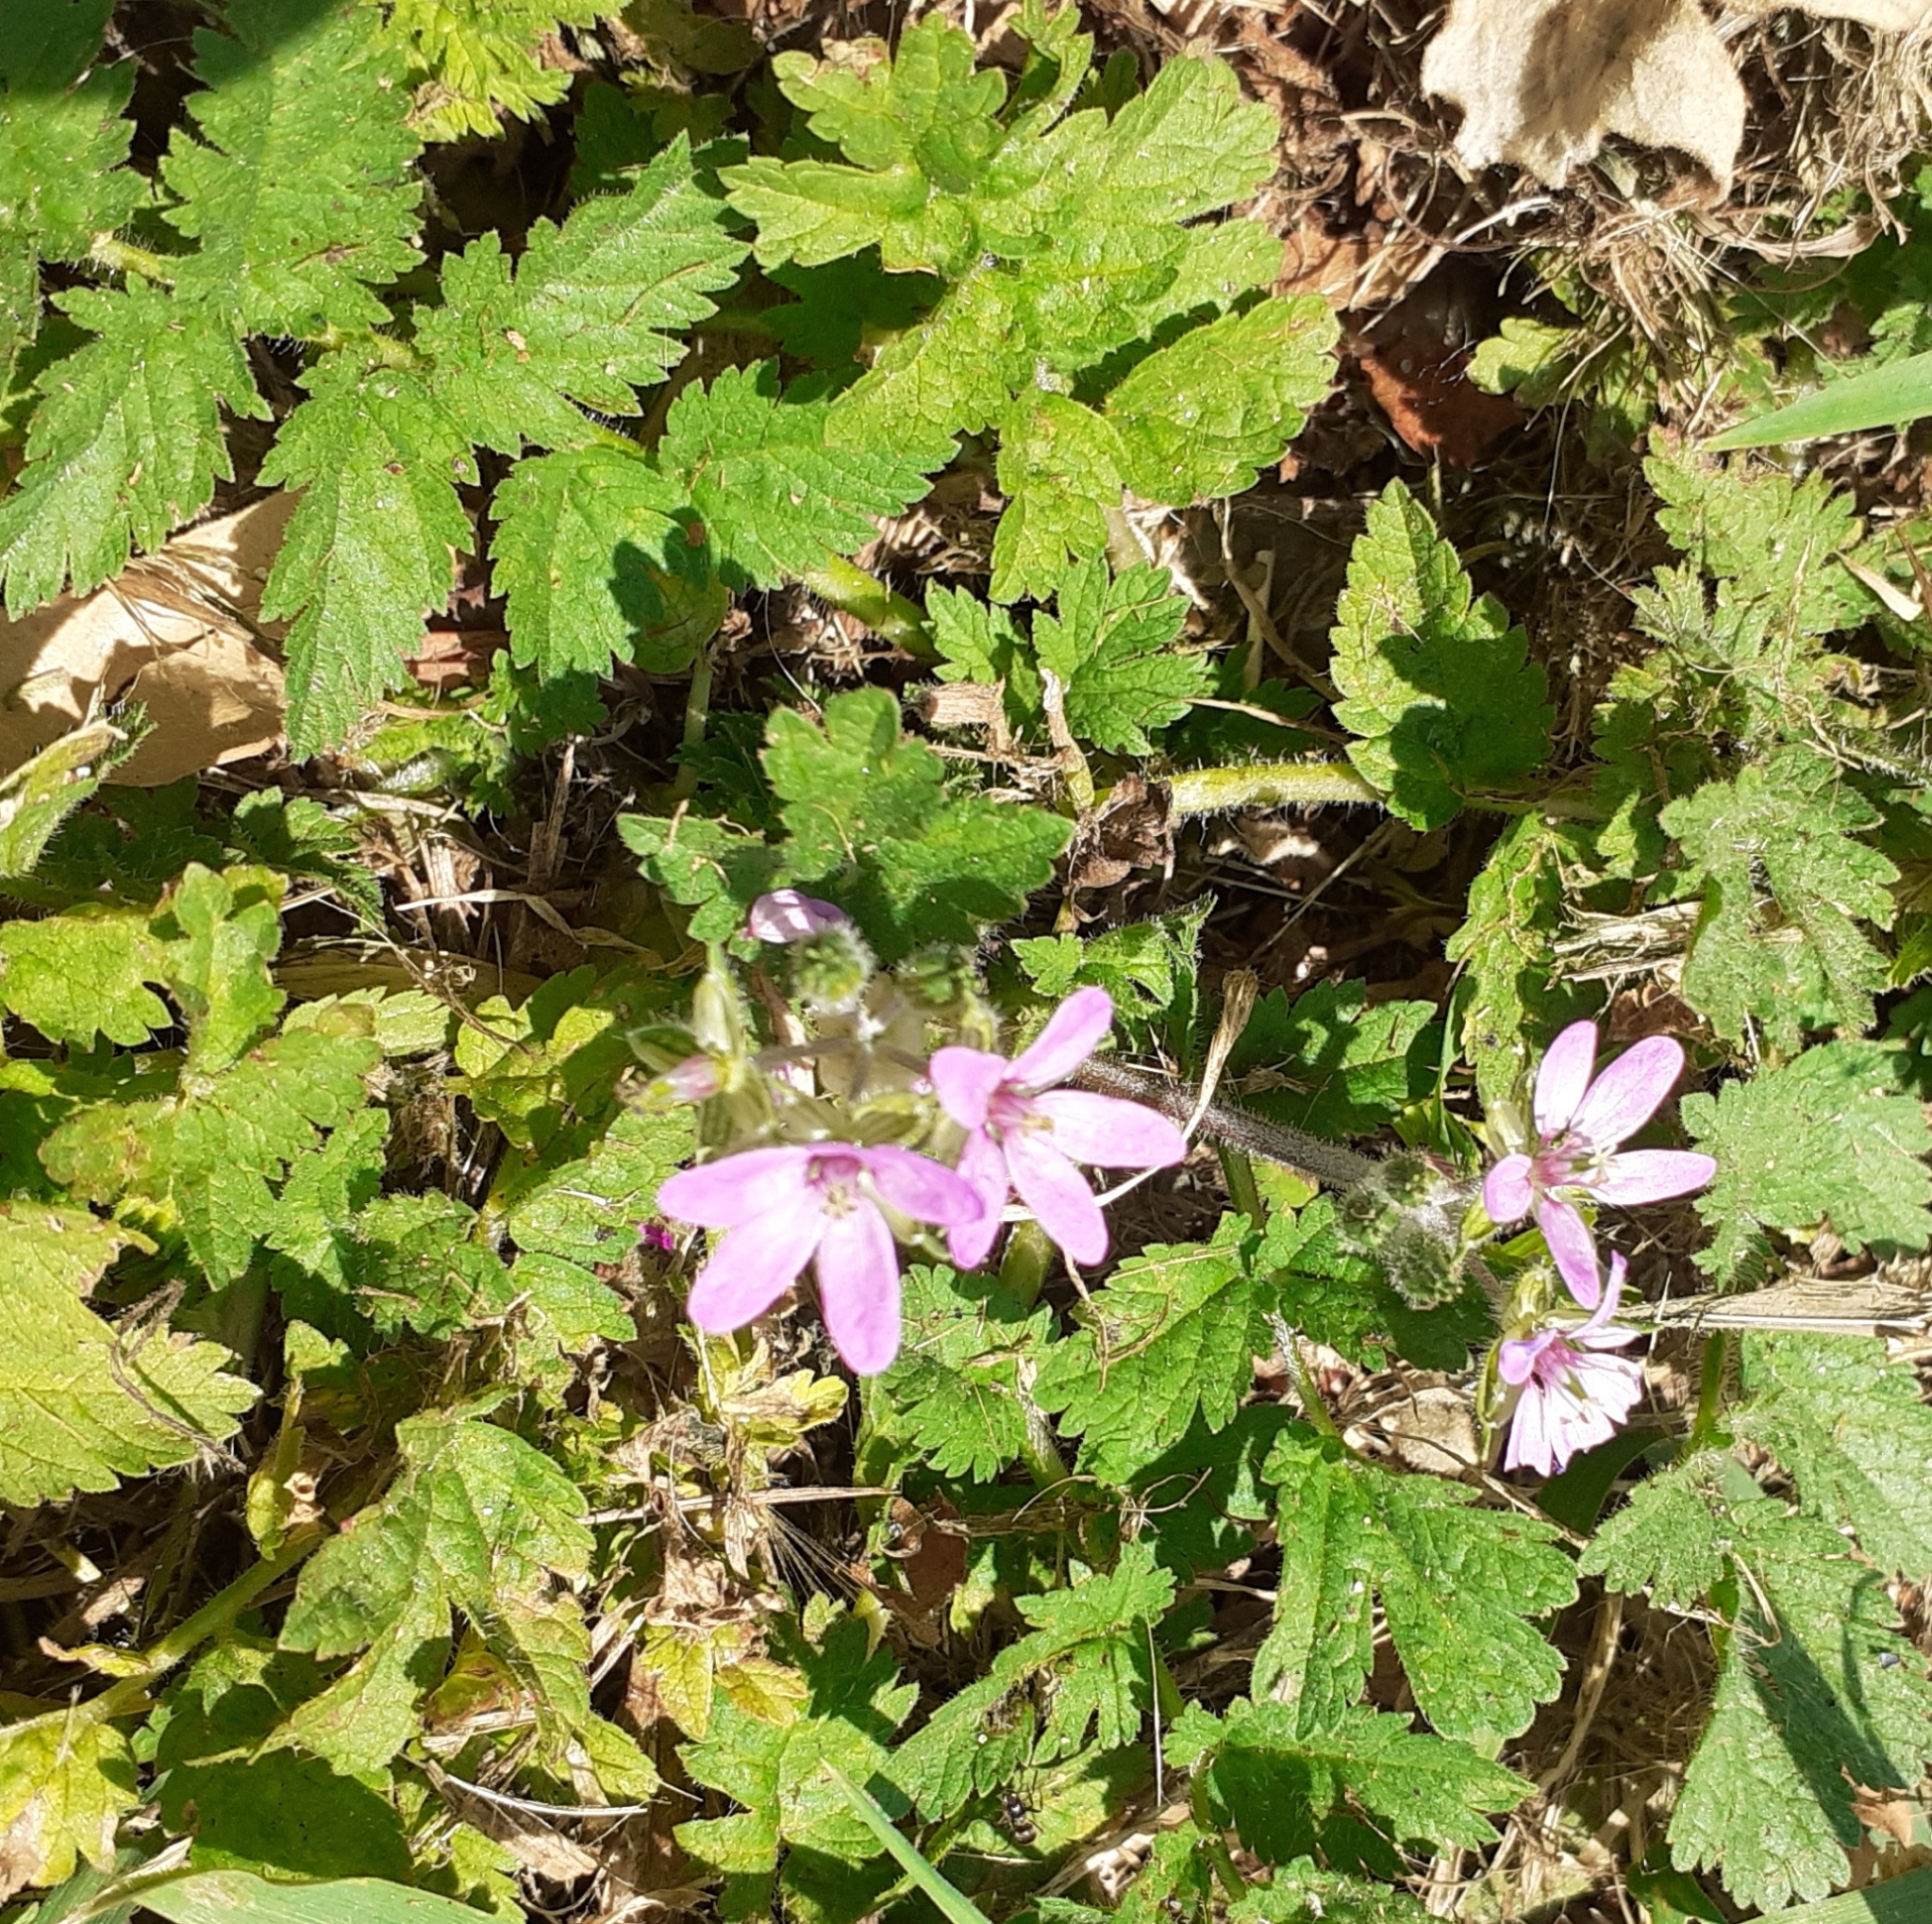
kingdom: Plantae
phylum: Tracheophyta
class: Magnoliopsida
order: Geraniales
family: Geraniaceae
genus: Erodium
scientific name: Erodium moschatum
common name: Musk stork's-bill
